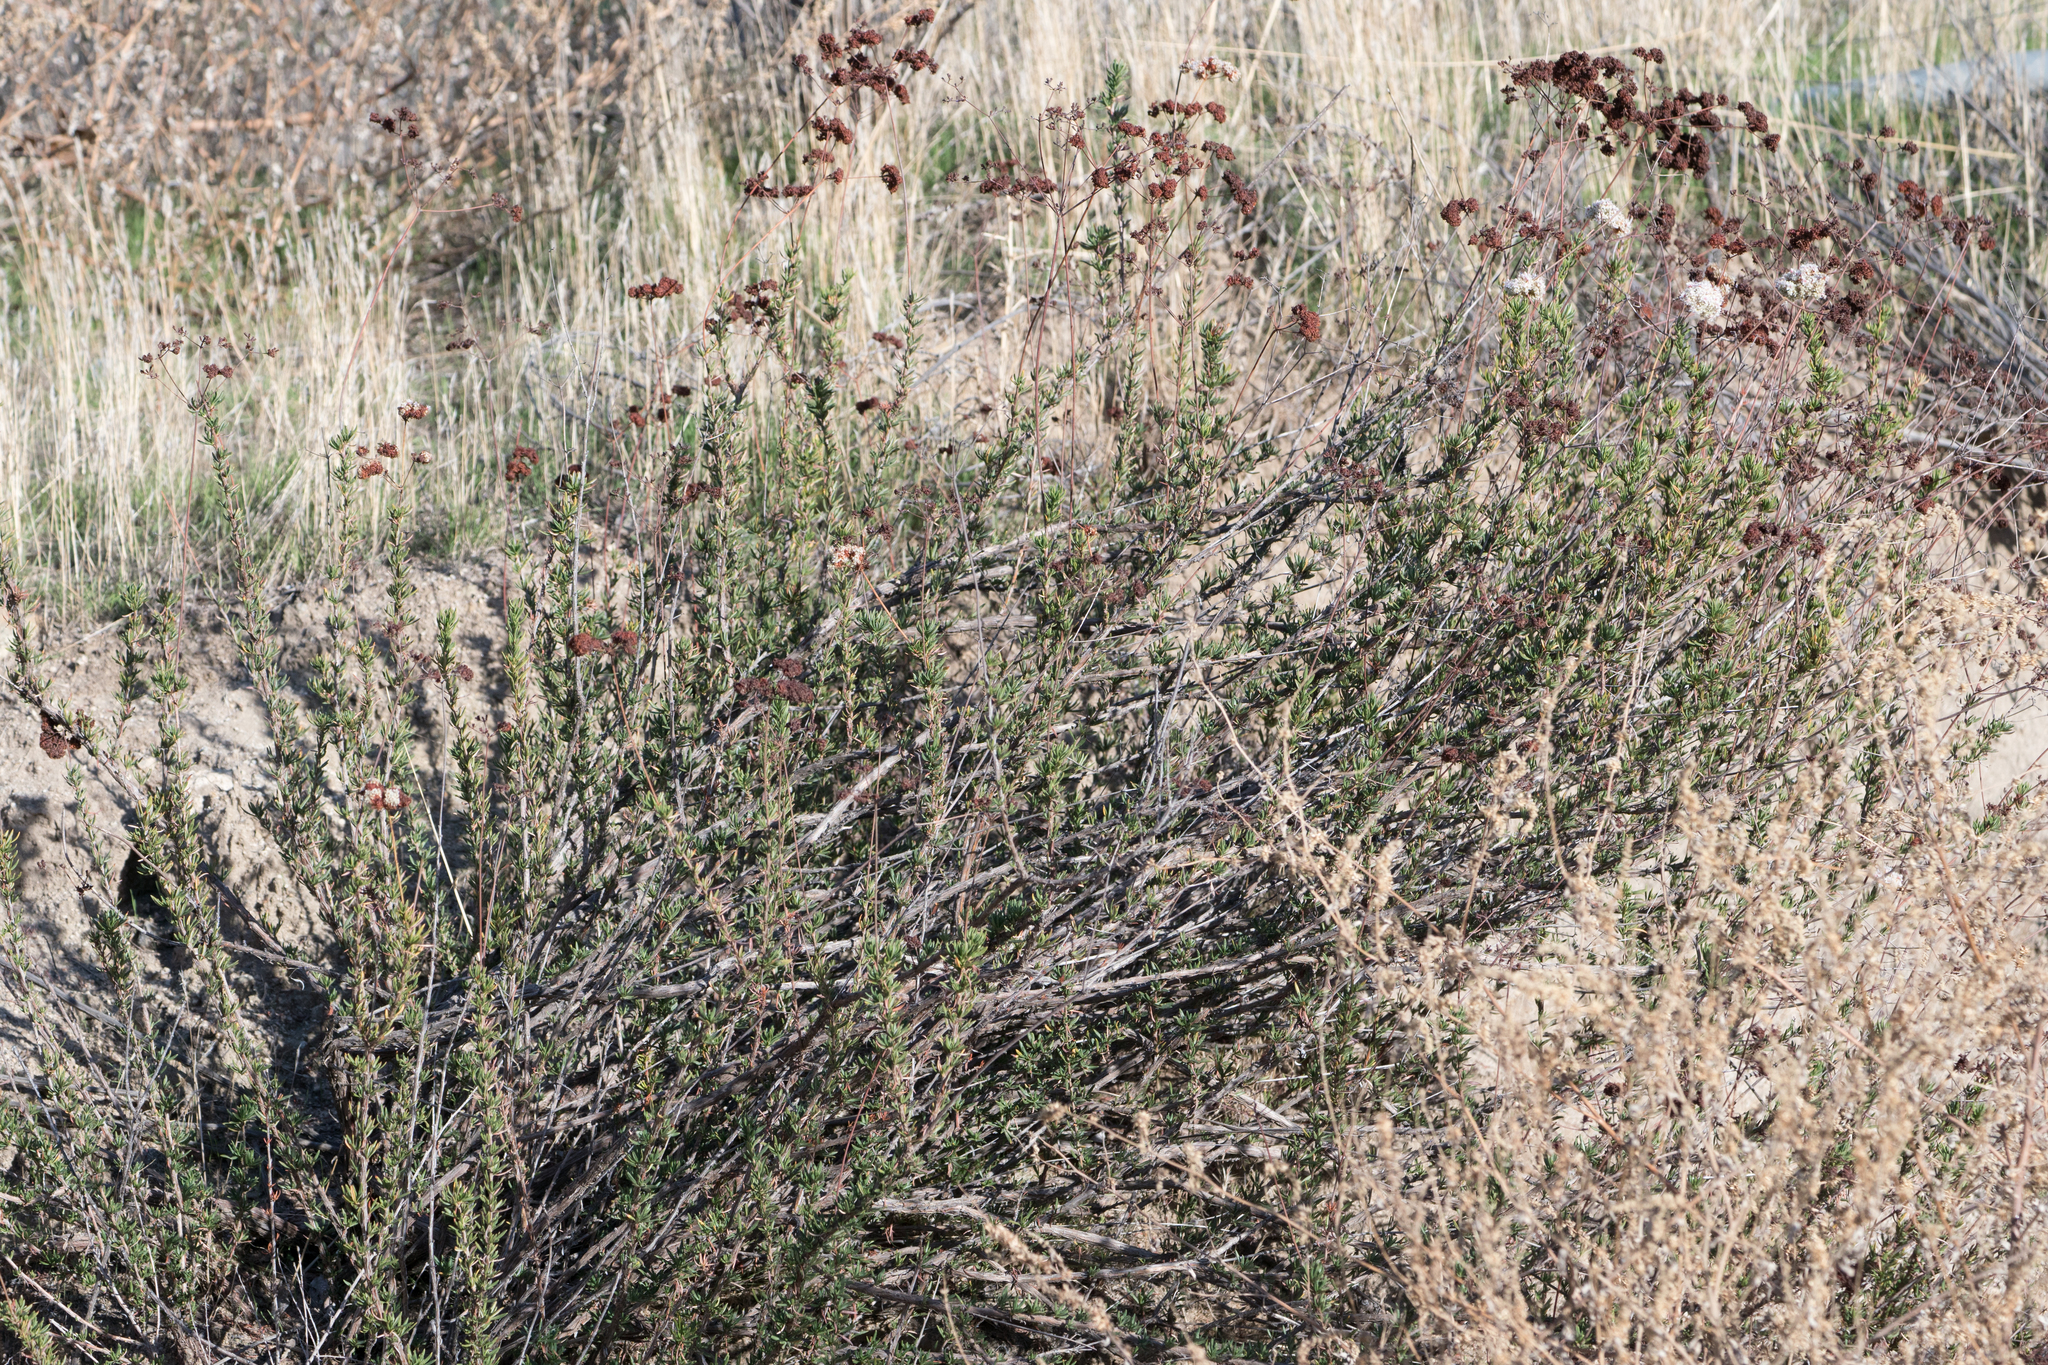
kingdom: Plantae
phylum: Tracheophyta
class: Magnoliopsida
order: Caryophyllales
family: Polygonaceae
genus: Eriogonum
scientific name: Eriogonum fasciculatum
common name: California wild buckwheat
